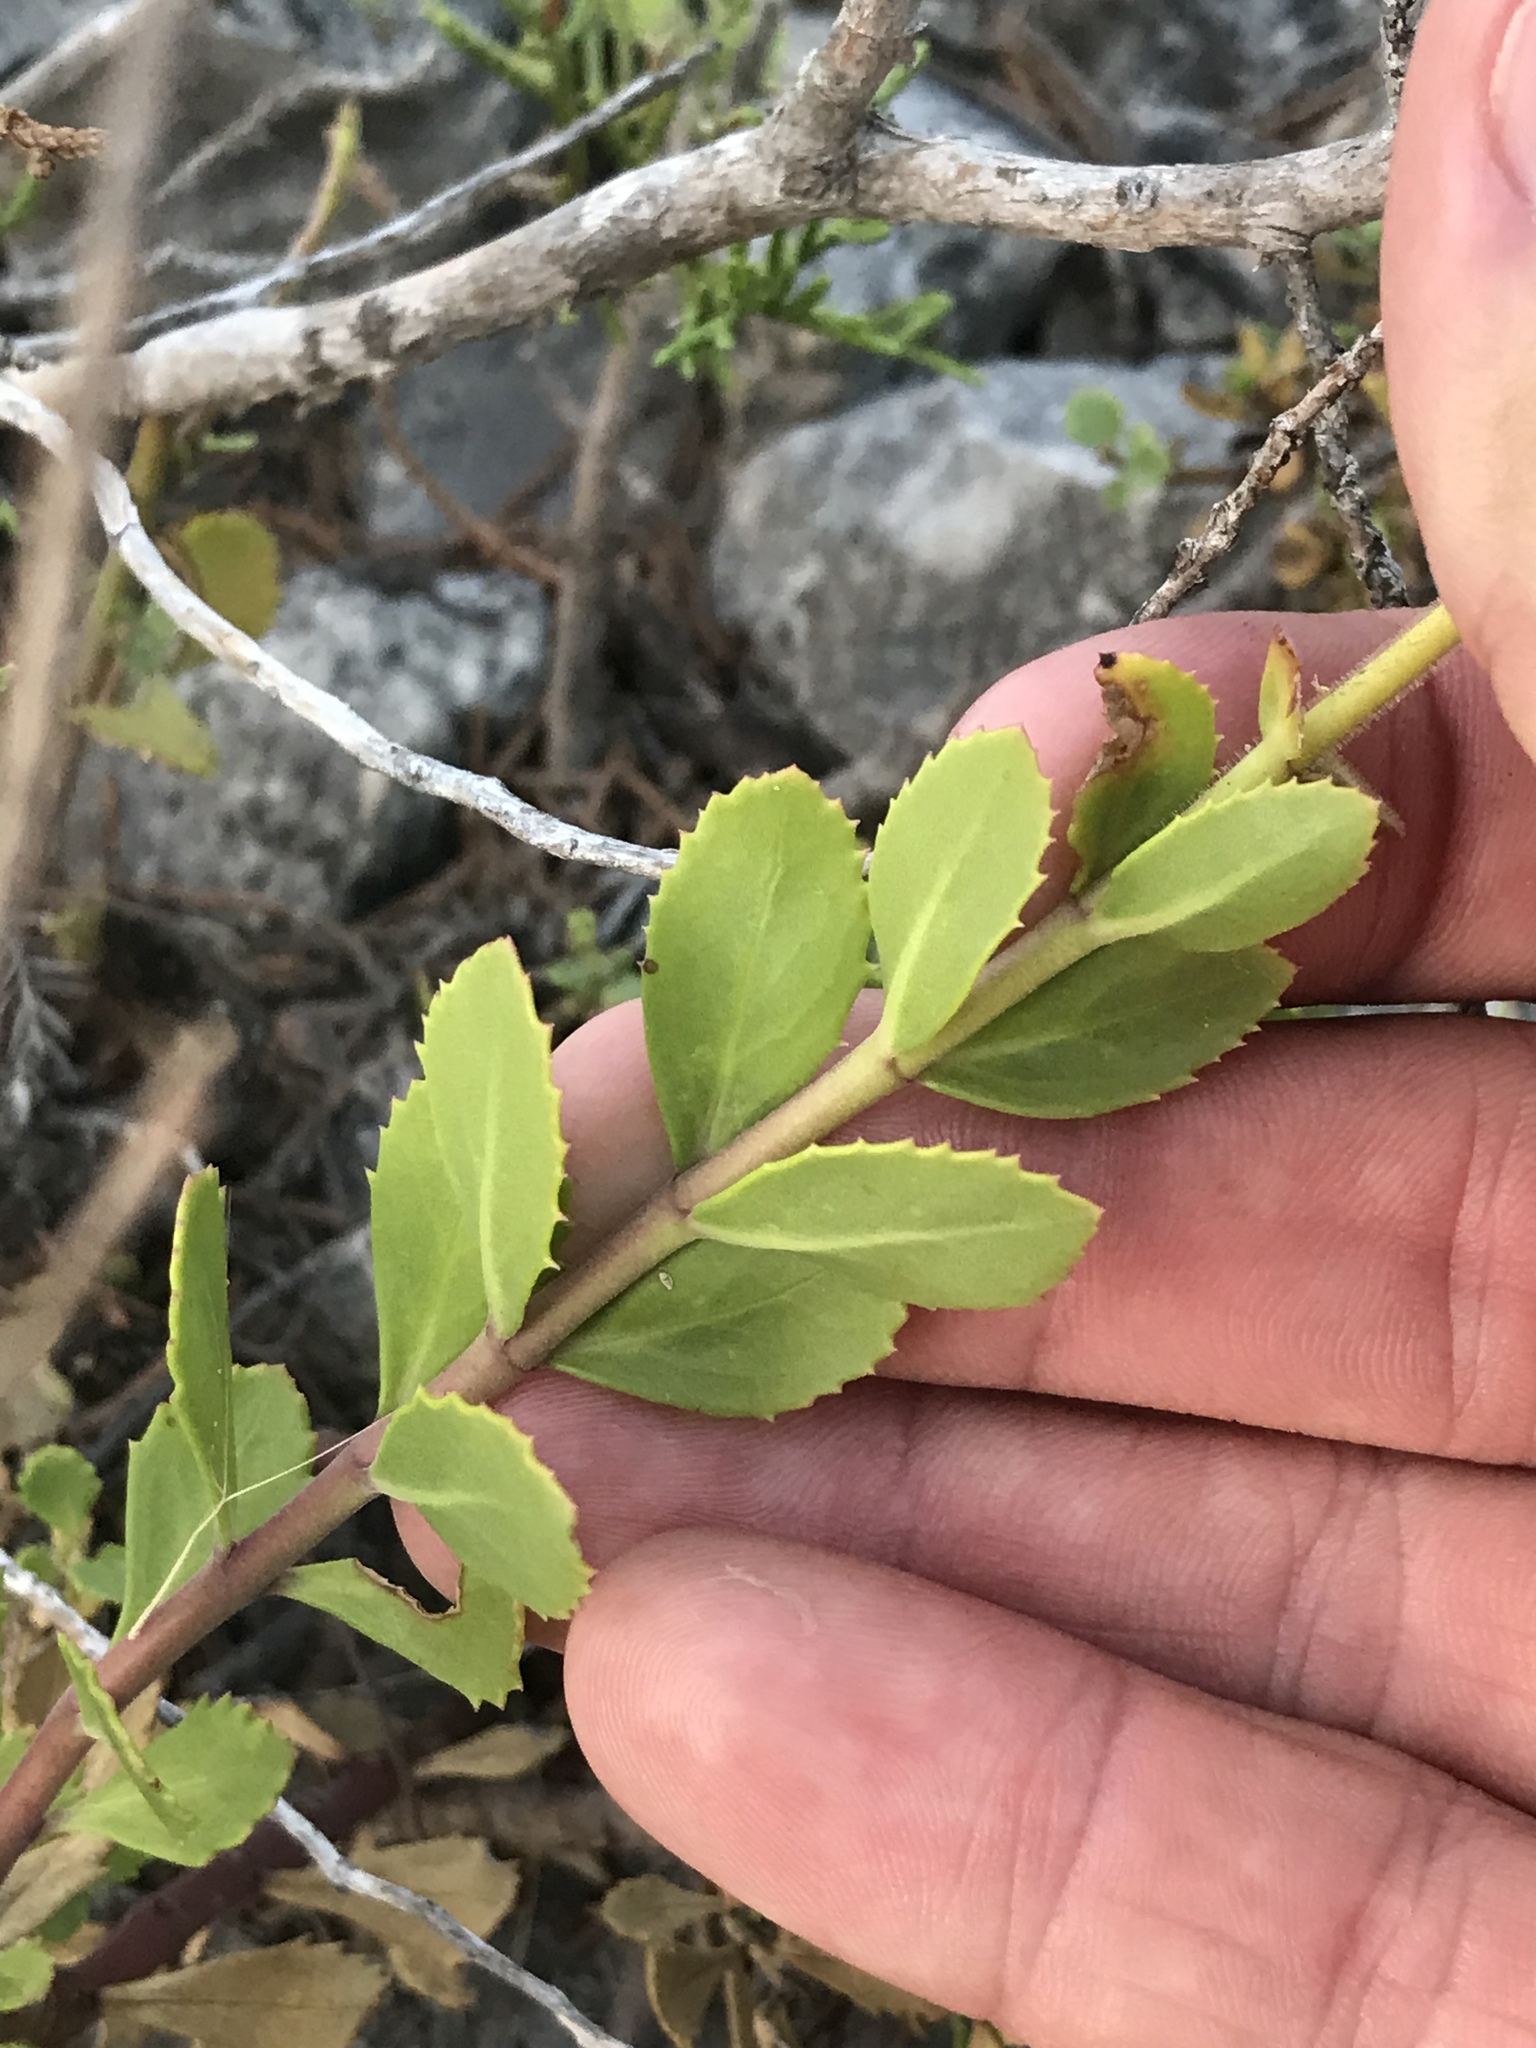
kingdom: Plantae
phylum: Tracheophyta
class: Magnoliopsida
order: Lamiales
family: Plantaginaceae
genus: Penstemon
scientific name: Penstemon baccharifolius
